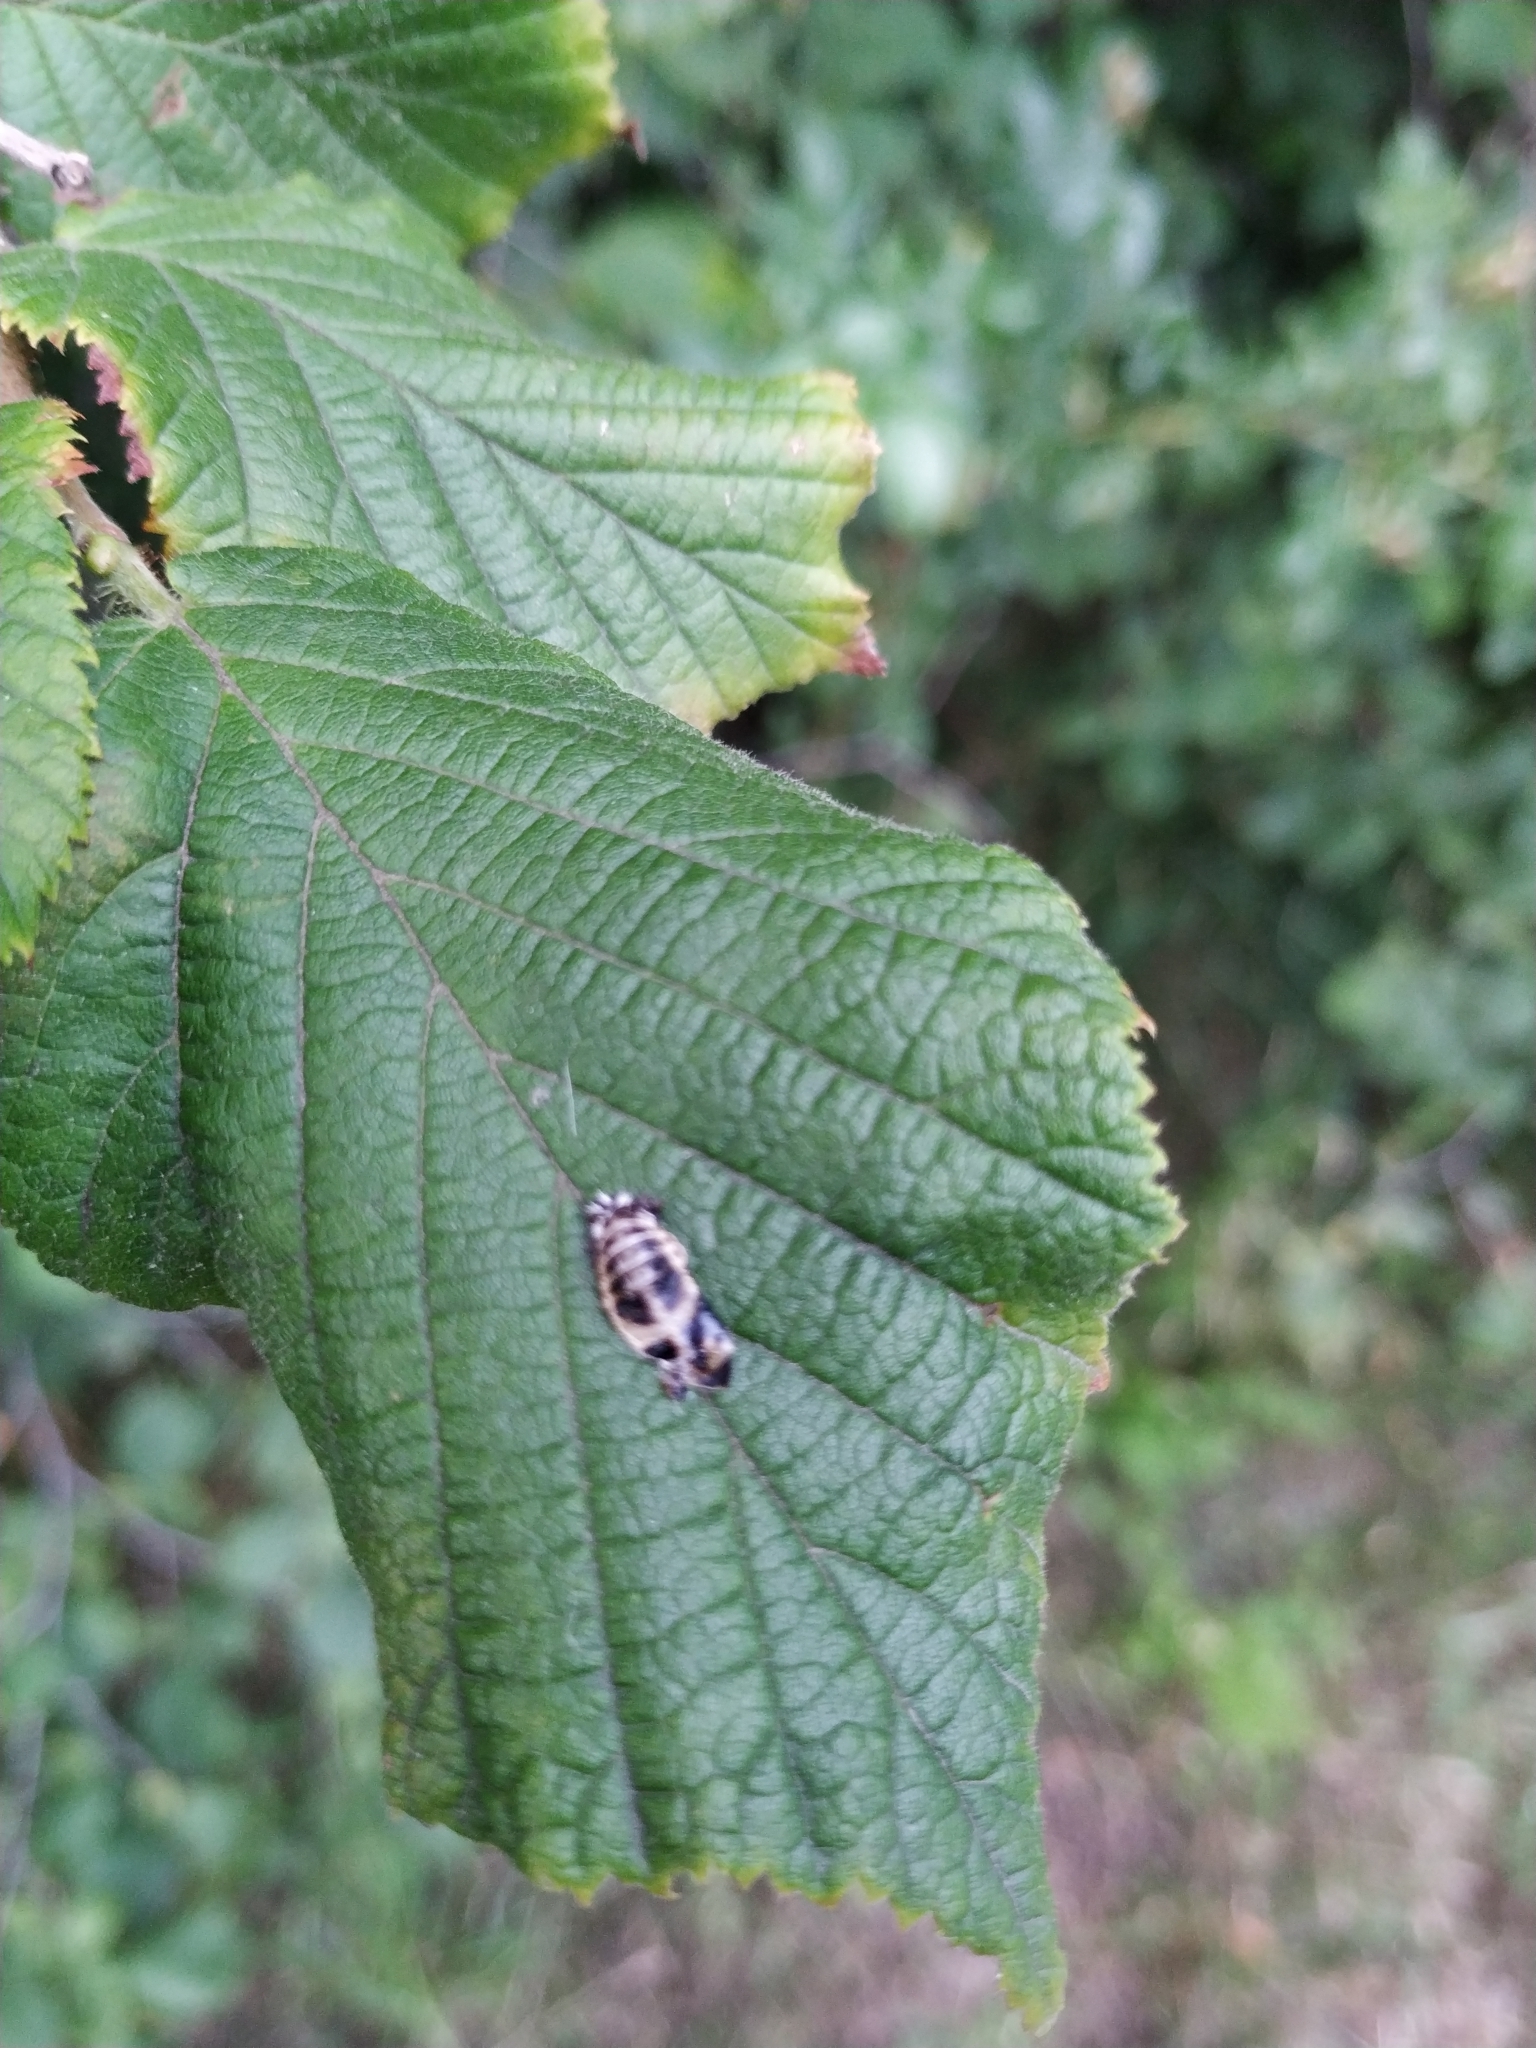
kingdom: Animalia
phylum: Arthropoda
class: Insecta
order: Coleoptera
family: Coccinellidae
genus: Harmonia
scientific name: Harmonia axyridis
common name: Harlequin ladybird
